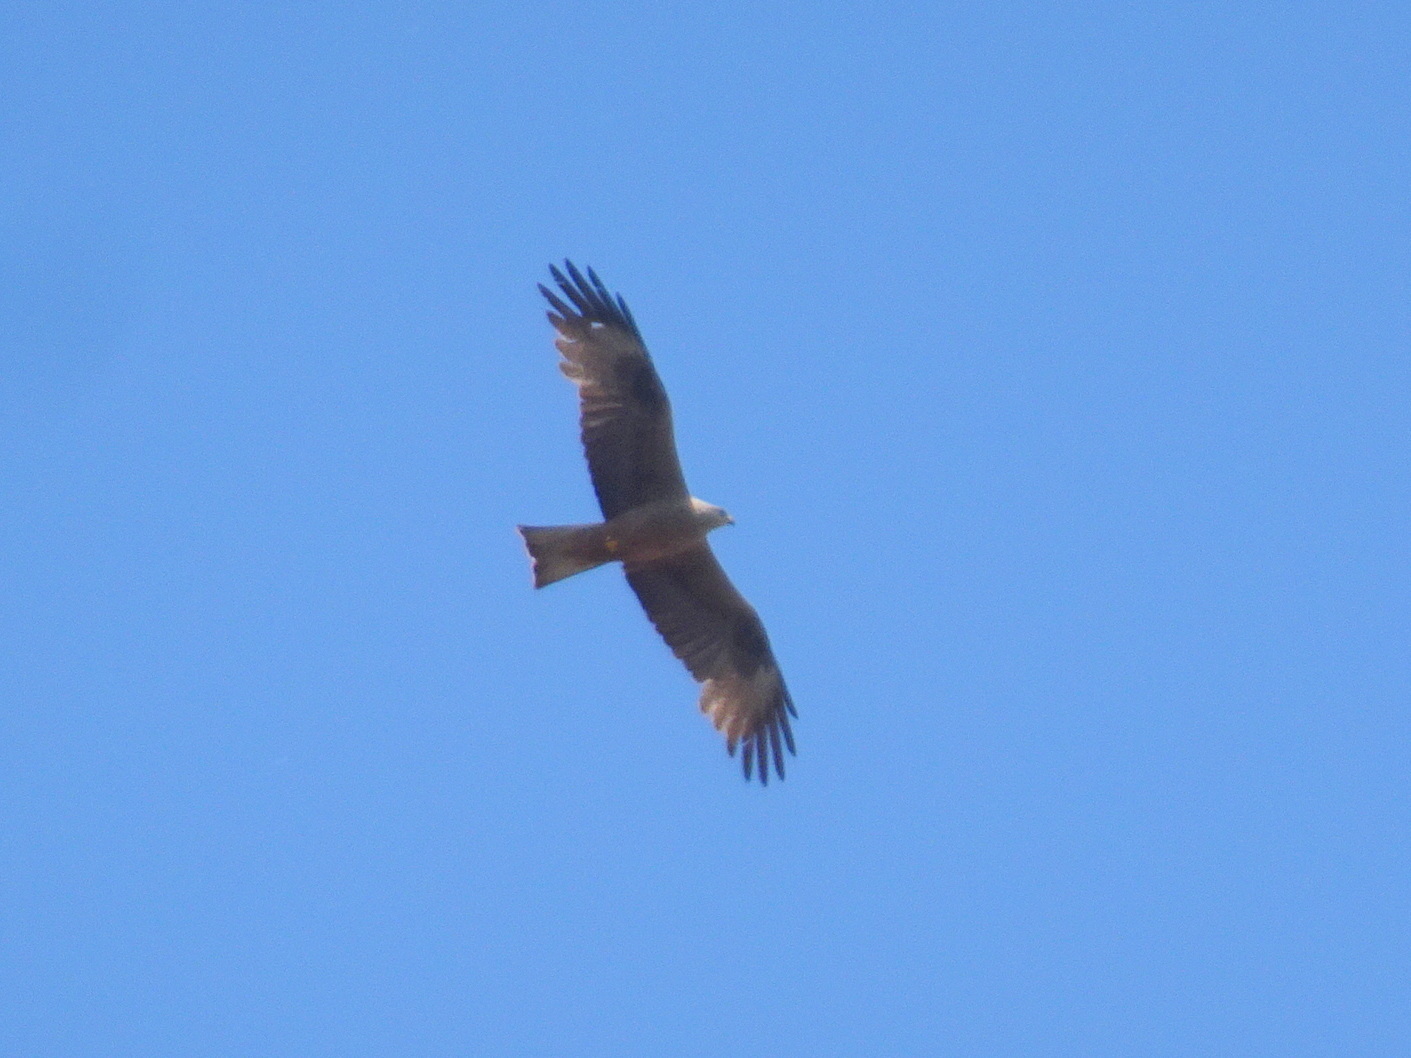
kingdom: Animalia
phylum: Chordata
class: Aves
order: Accipitriformes
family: Accipitridae
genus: Milvus
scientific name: Milvus migrans
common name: Black kite
